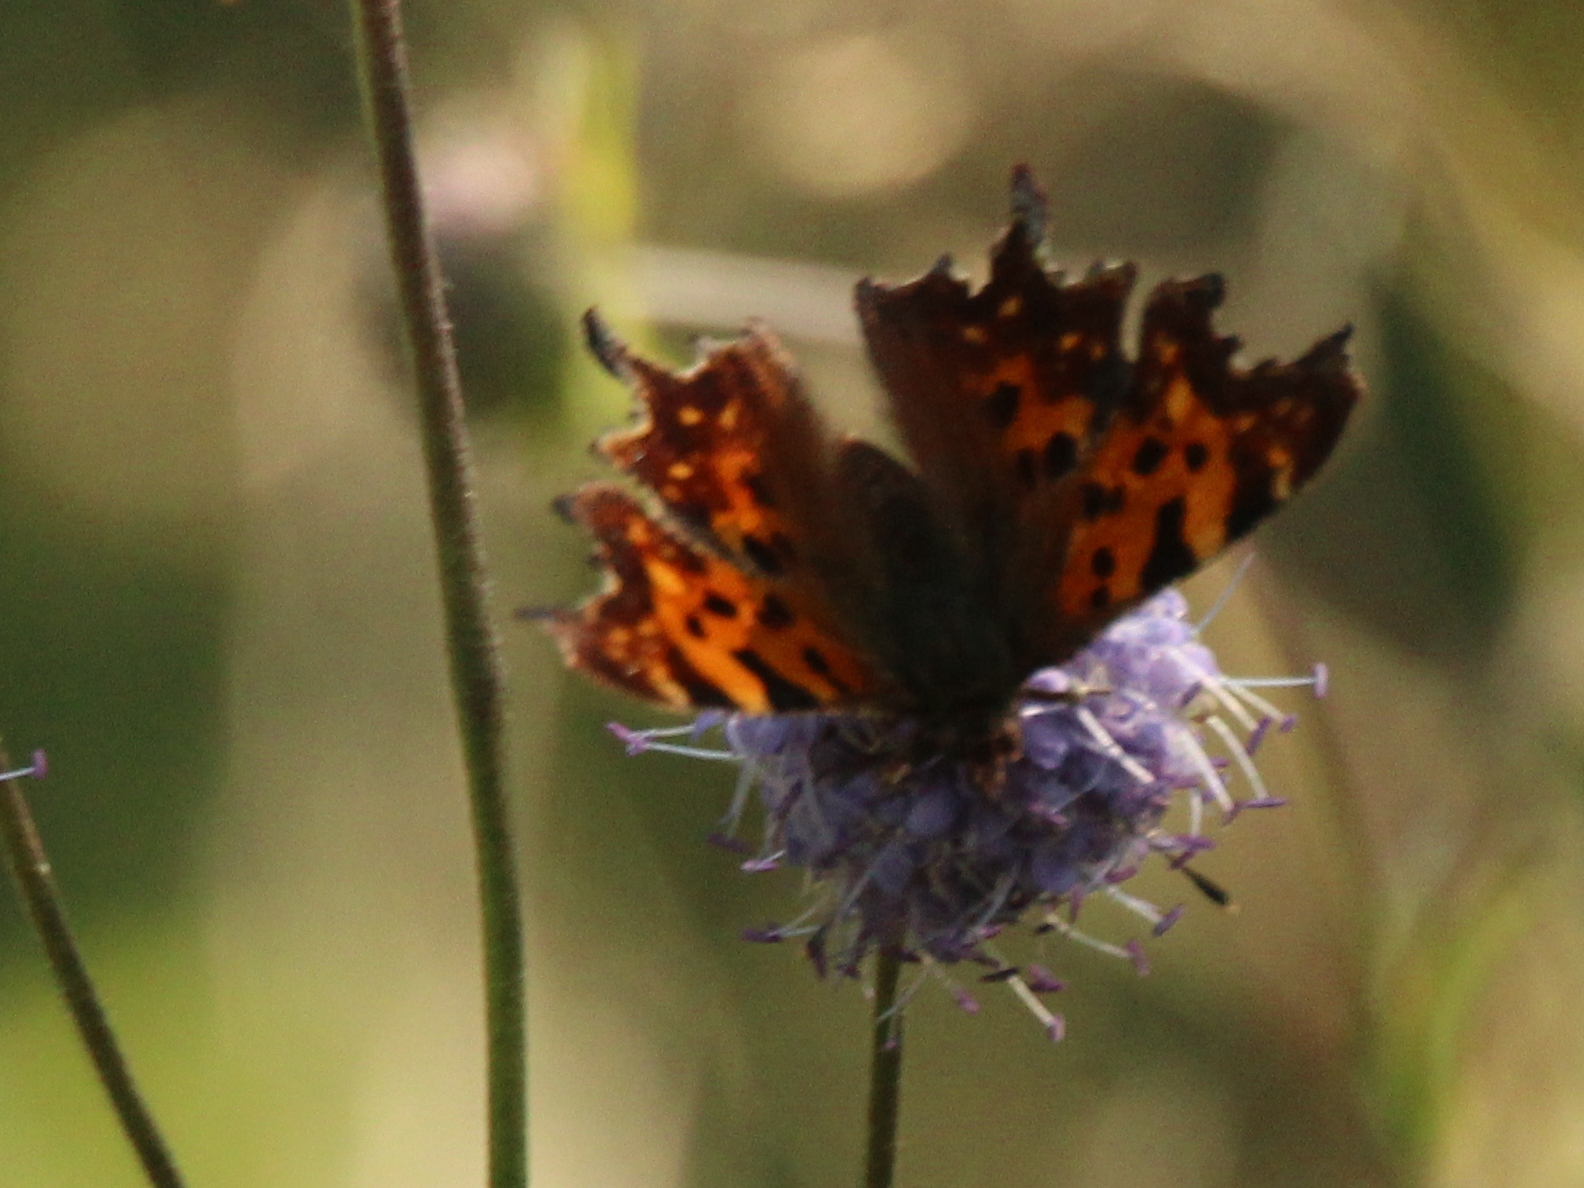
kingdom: Animalia
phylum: Arthropoda
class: Insecta
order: Lepidoptera
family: Nymphalidae
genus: Polygonia
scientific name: Polygonia c-album
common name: Comma
